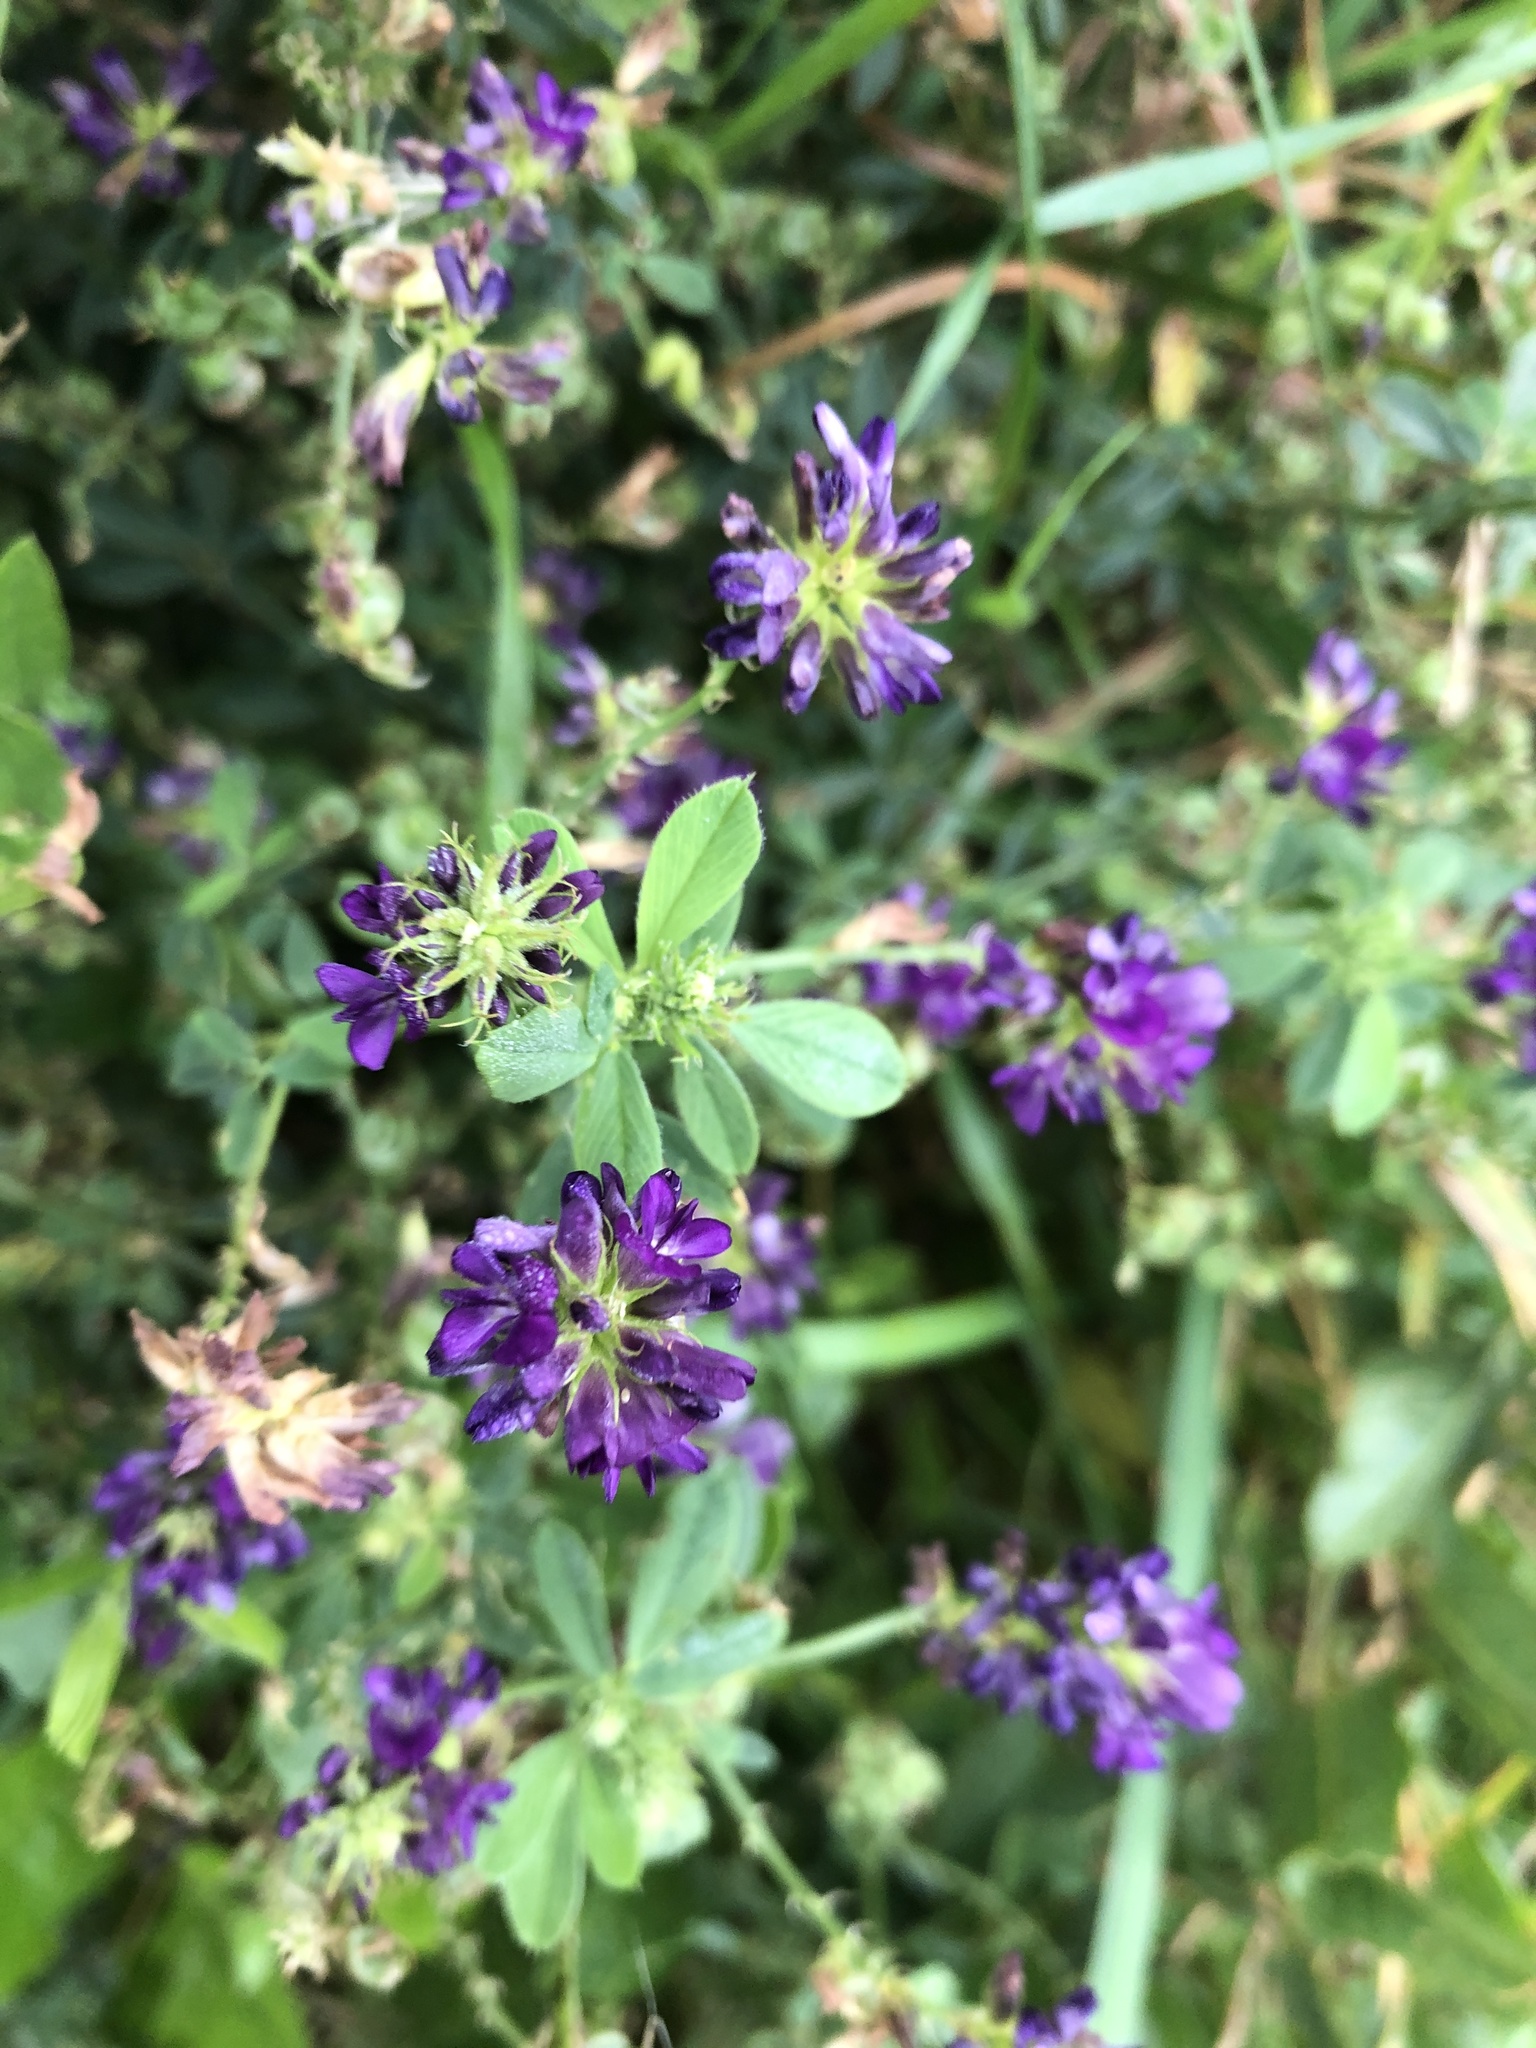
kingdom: Plantae
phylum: Tracheophyta
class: Magnoliopsida
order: Fabales
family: Fabaceae
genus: Medicago
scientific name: Medicago sativa
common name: Alfalfa
